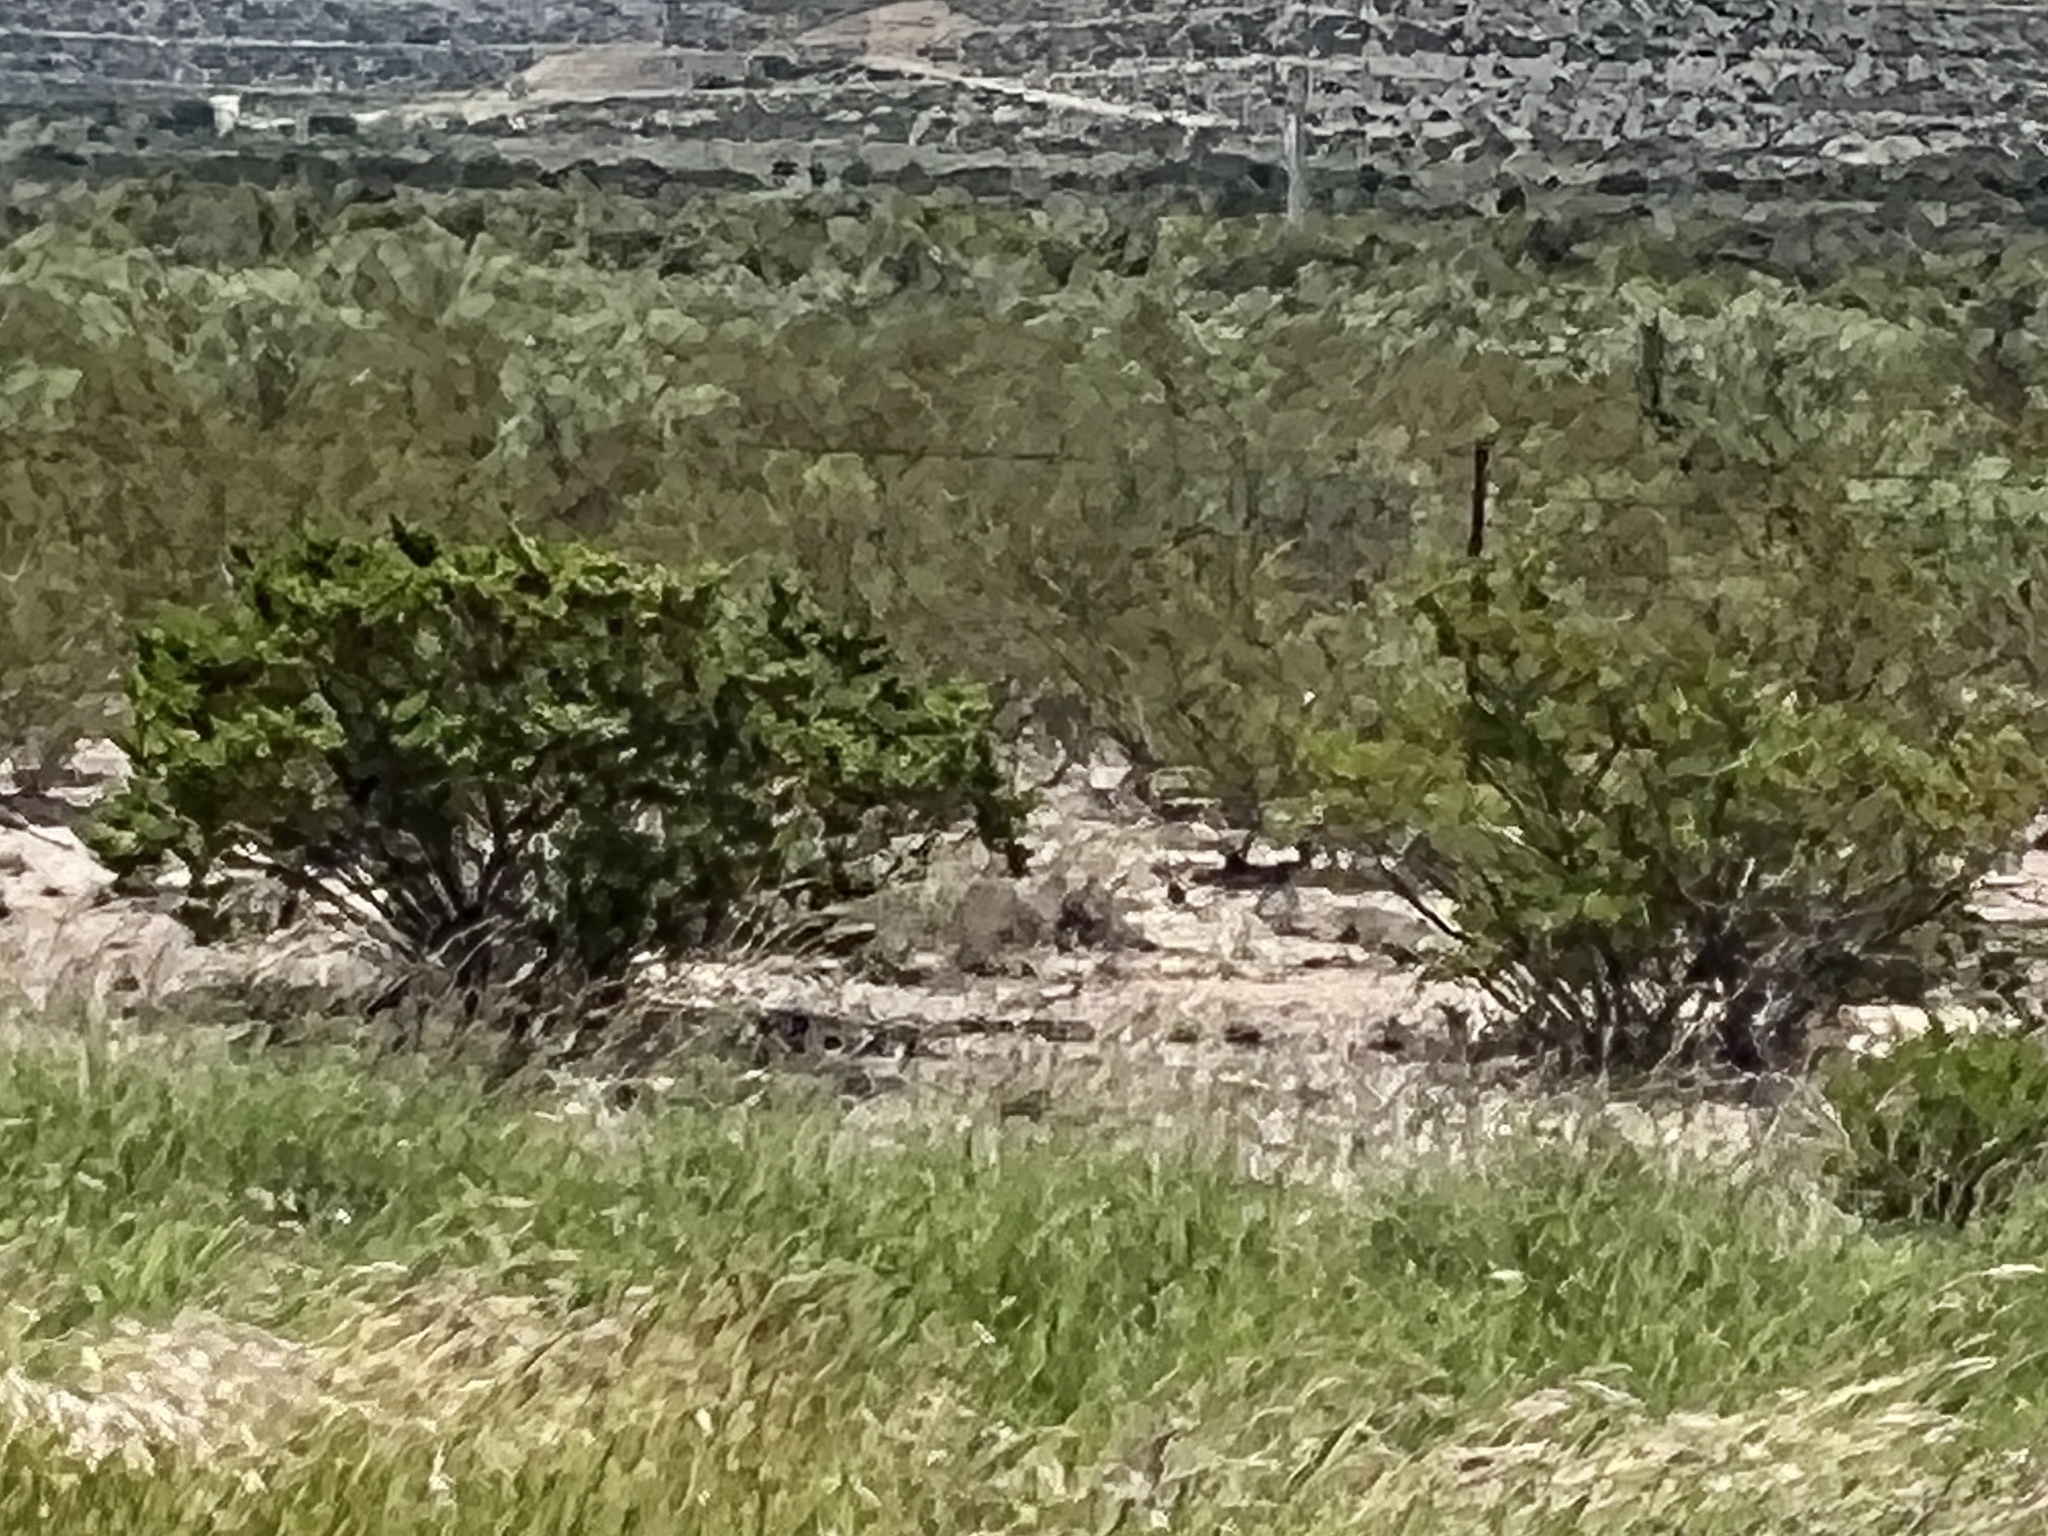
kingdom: Plantae
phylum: Tracheophyta
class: Magnoliopsida
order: Zygophyllales
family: Zygophyllaceae
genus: Larrea
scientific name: Larrea tridentata
